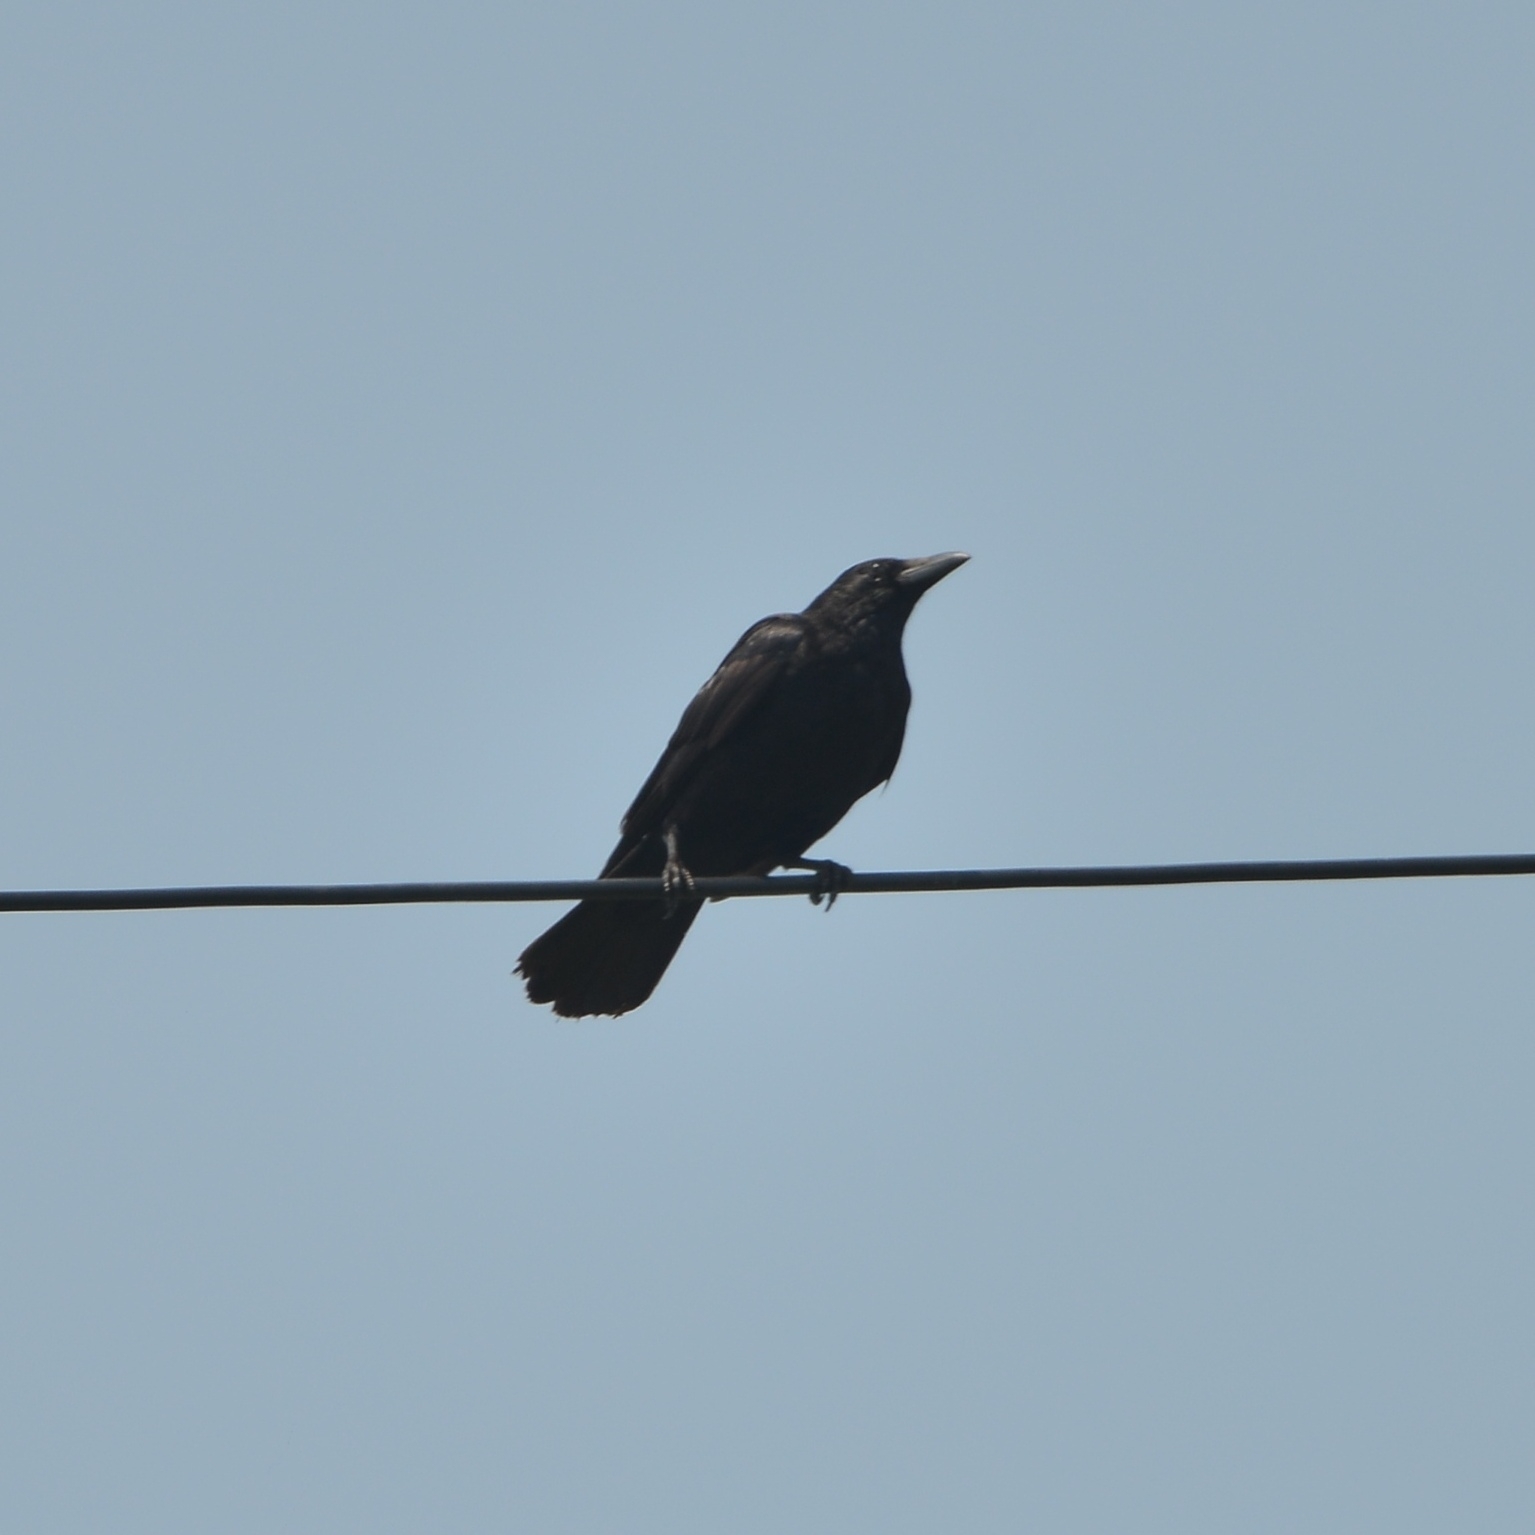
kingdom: Animalia
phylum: Chordata
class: Aves
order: Passeriformes
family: Corvidae
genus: Corvus
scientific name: Corvus corone
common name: Carrion crow
